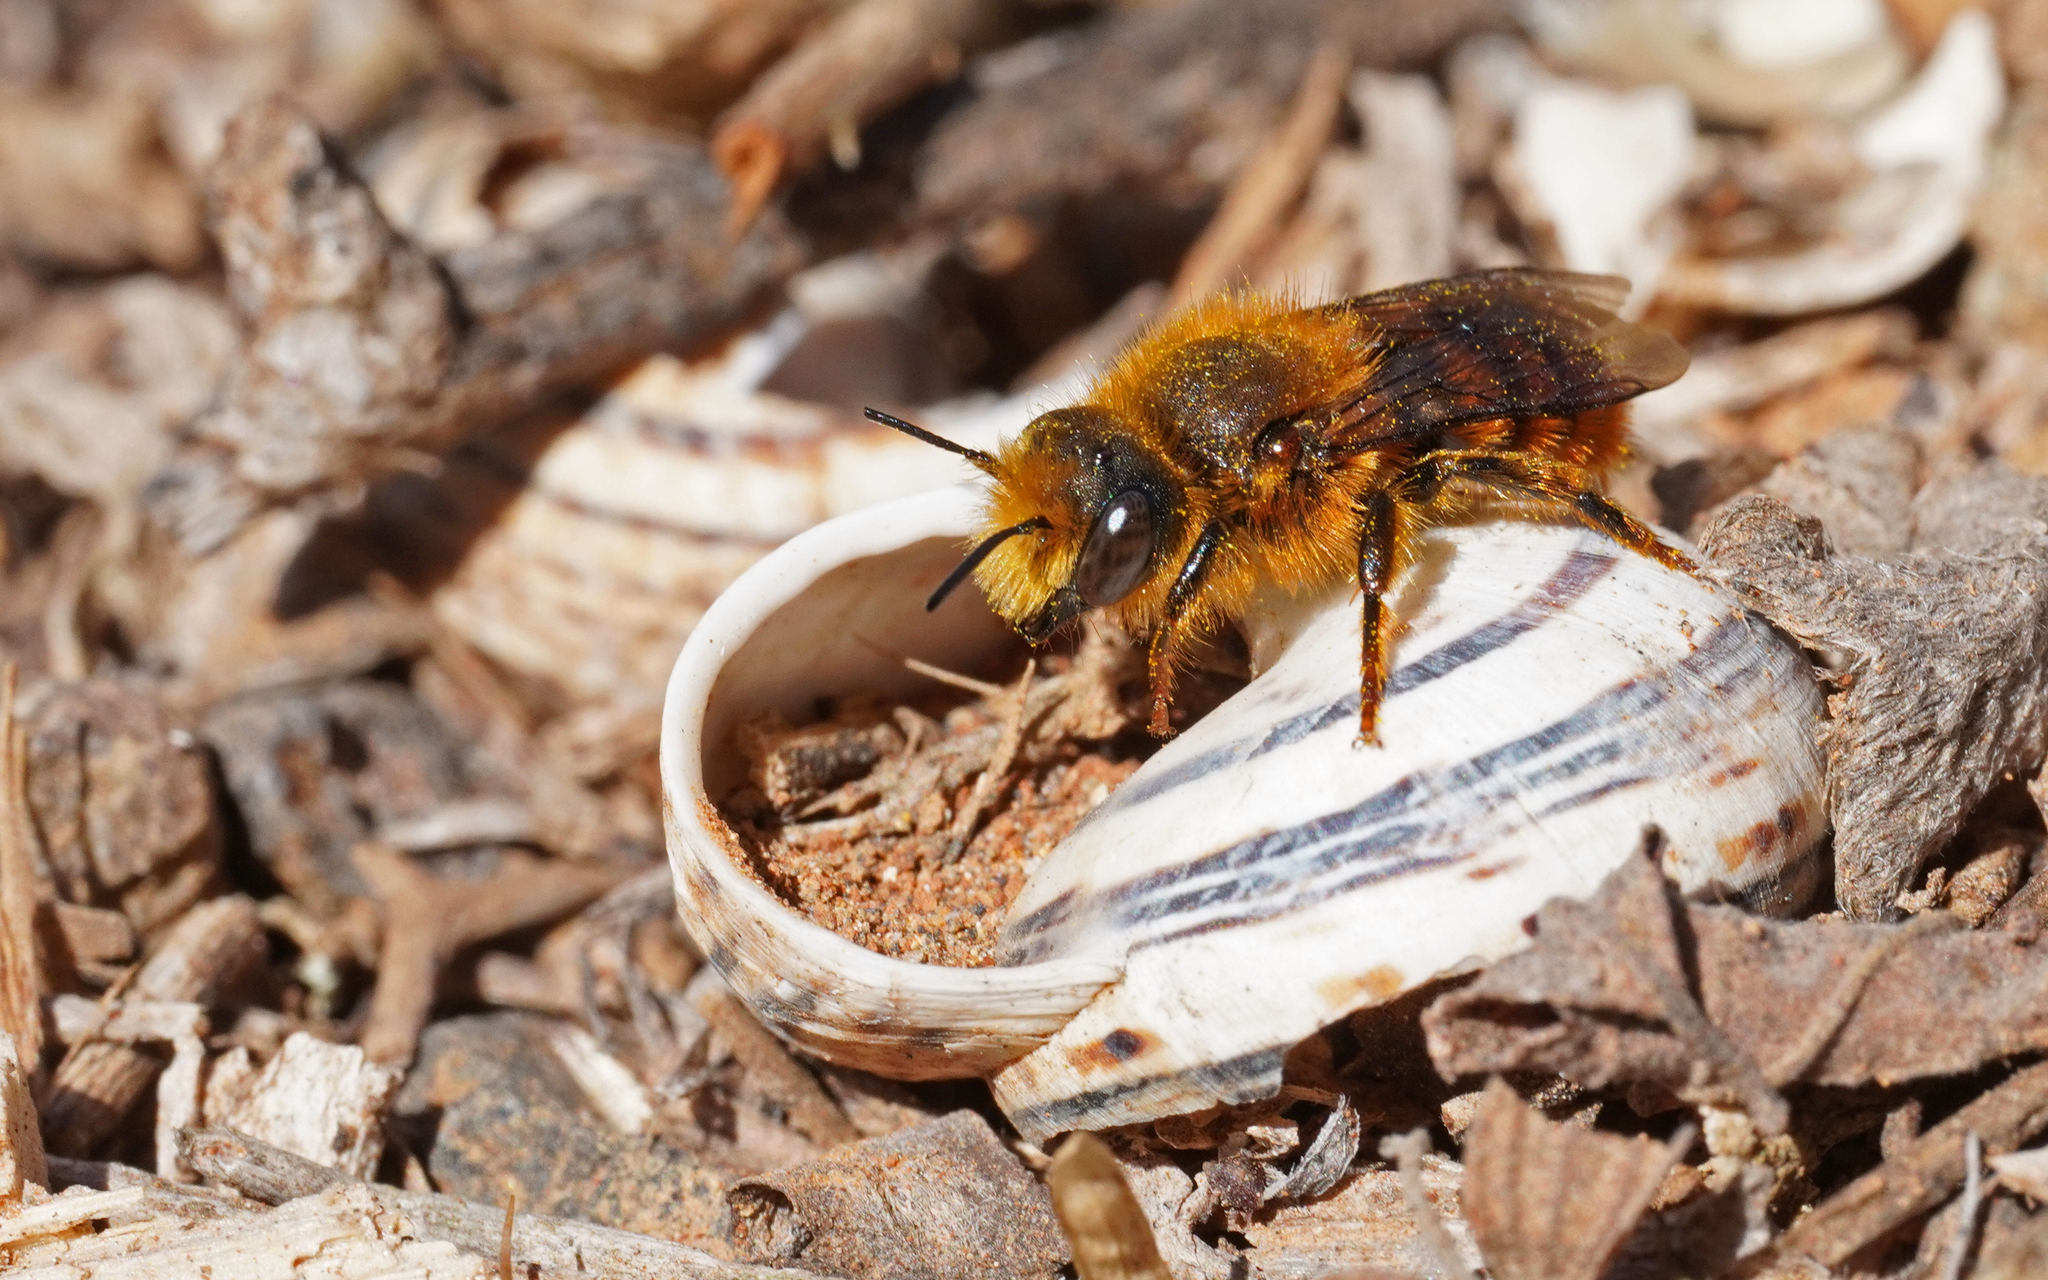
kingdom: Animalia
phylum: Arthropoda
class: Insecta
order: Hymenoptera
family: Megachilidae
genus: Osmia
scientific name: Osmia cinnabarina
